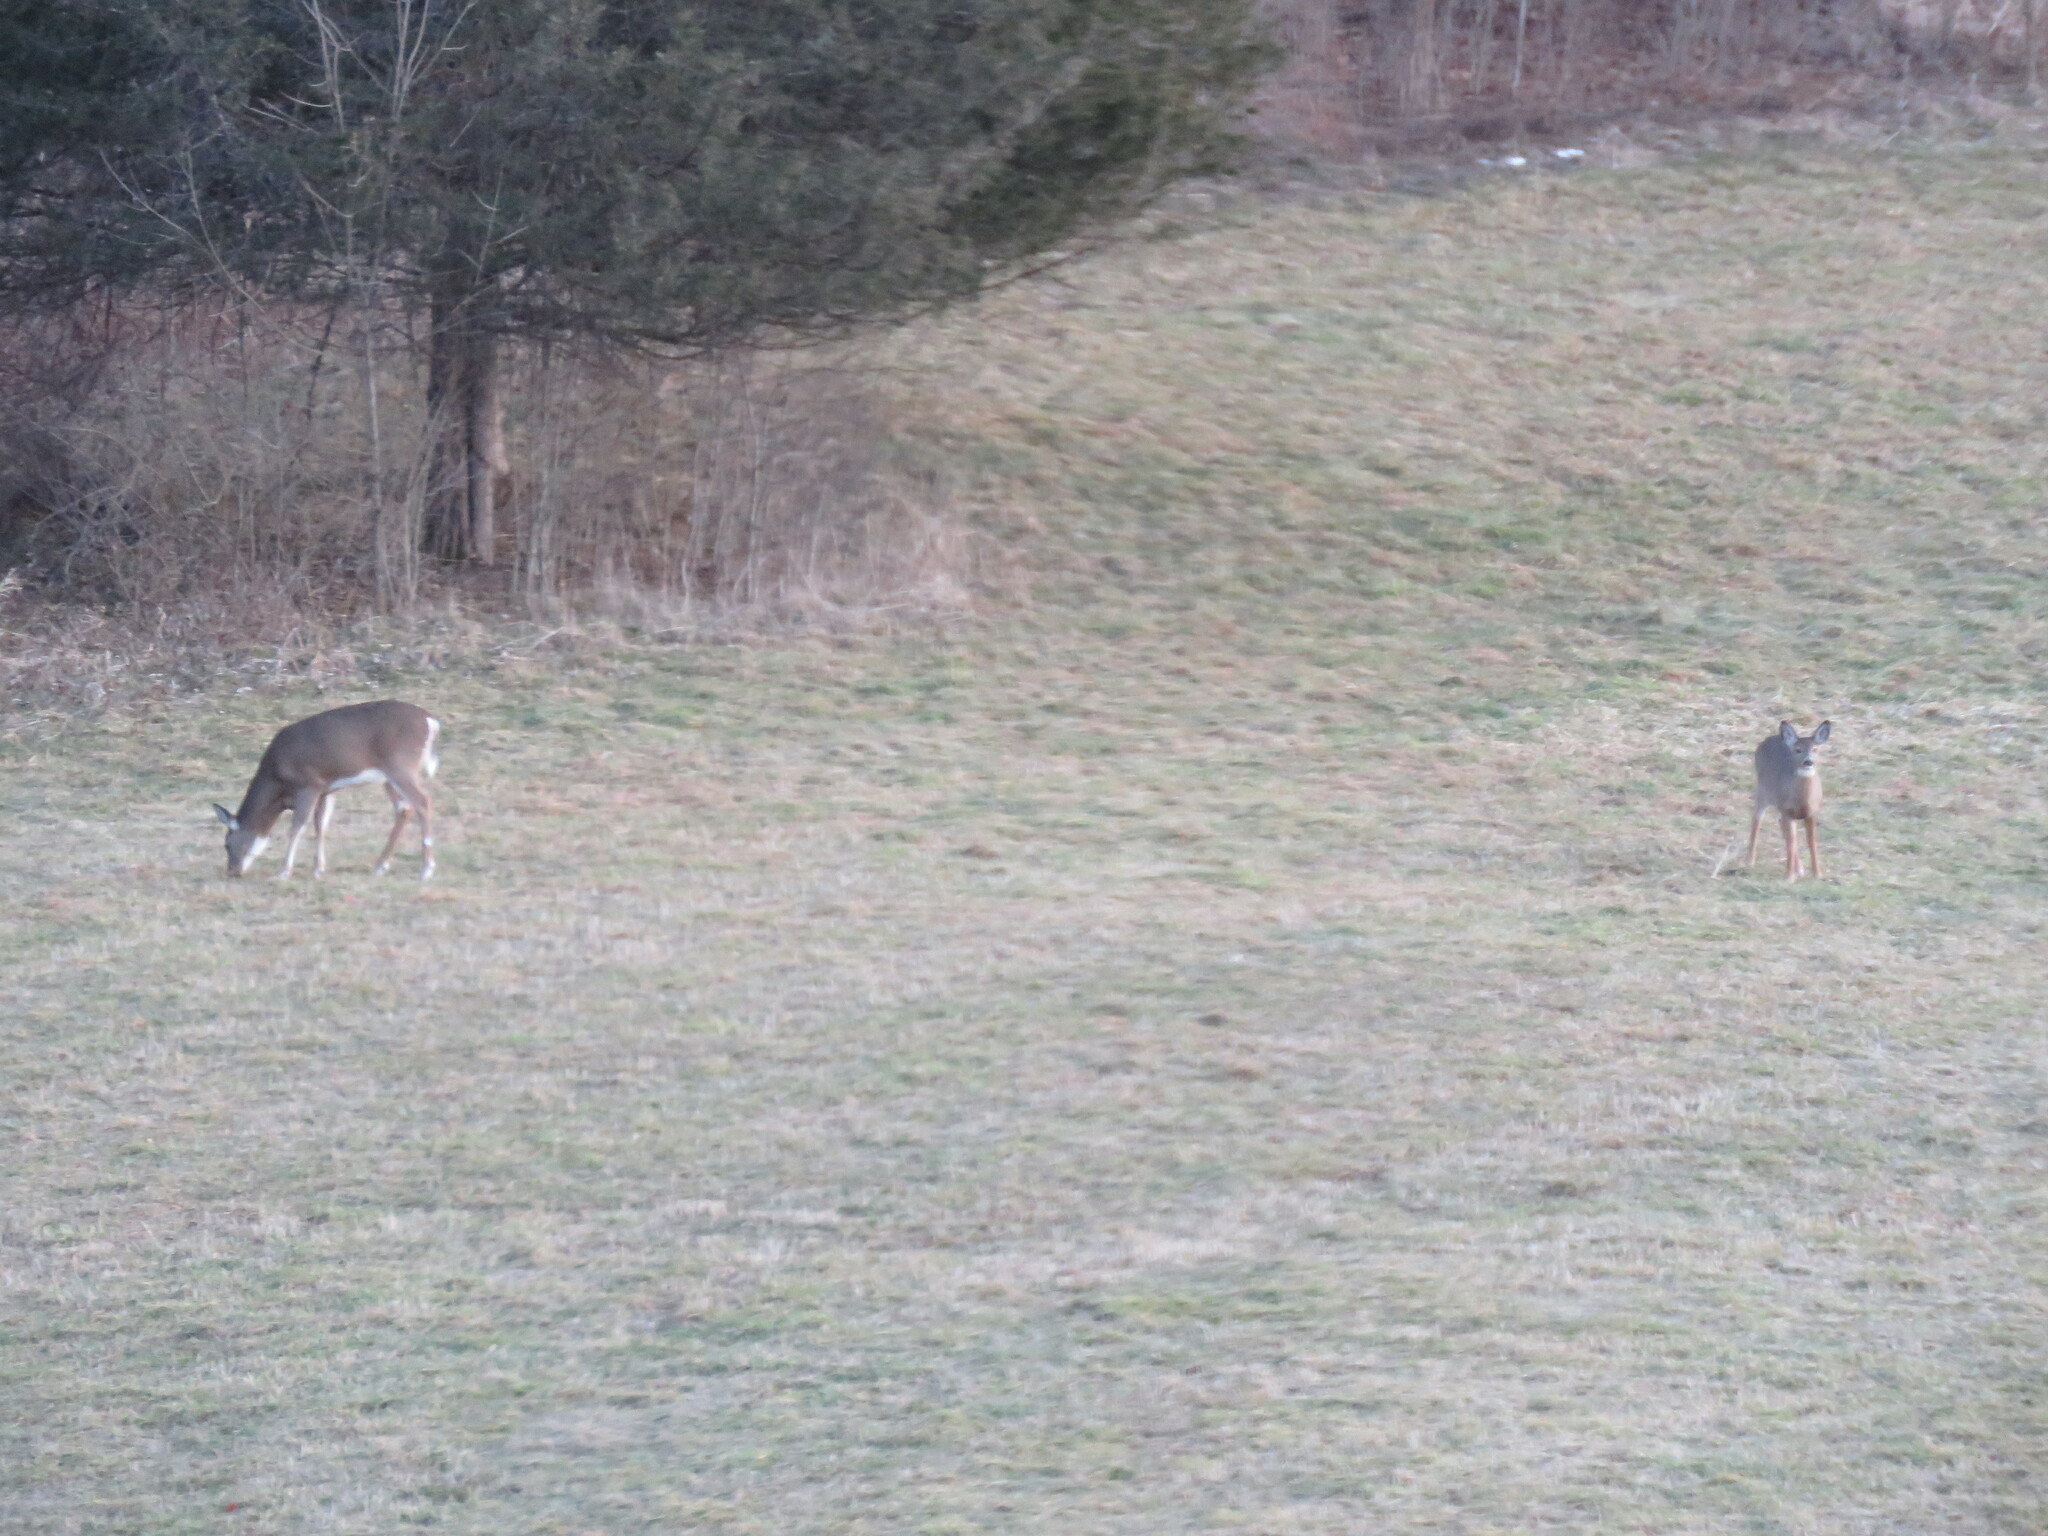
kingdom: Animalia
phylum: Chordata
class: Mammalia
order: Artiodactyla
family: Cervidae
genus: Odocoileus
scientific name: Odocoileus virginianus
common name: White-tailed deer
